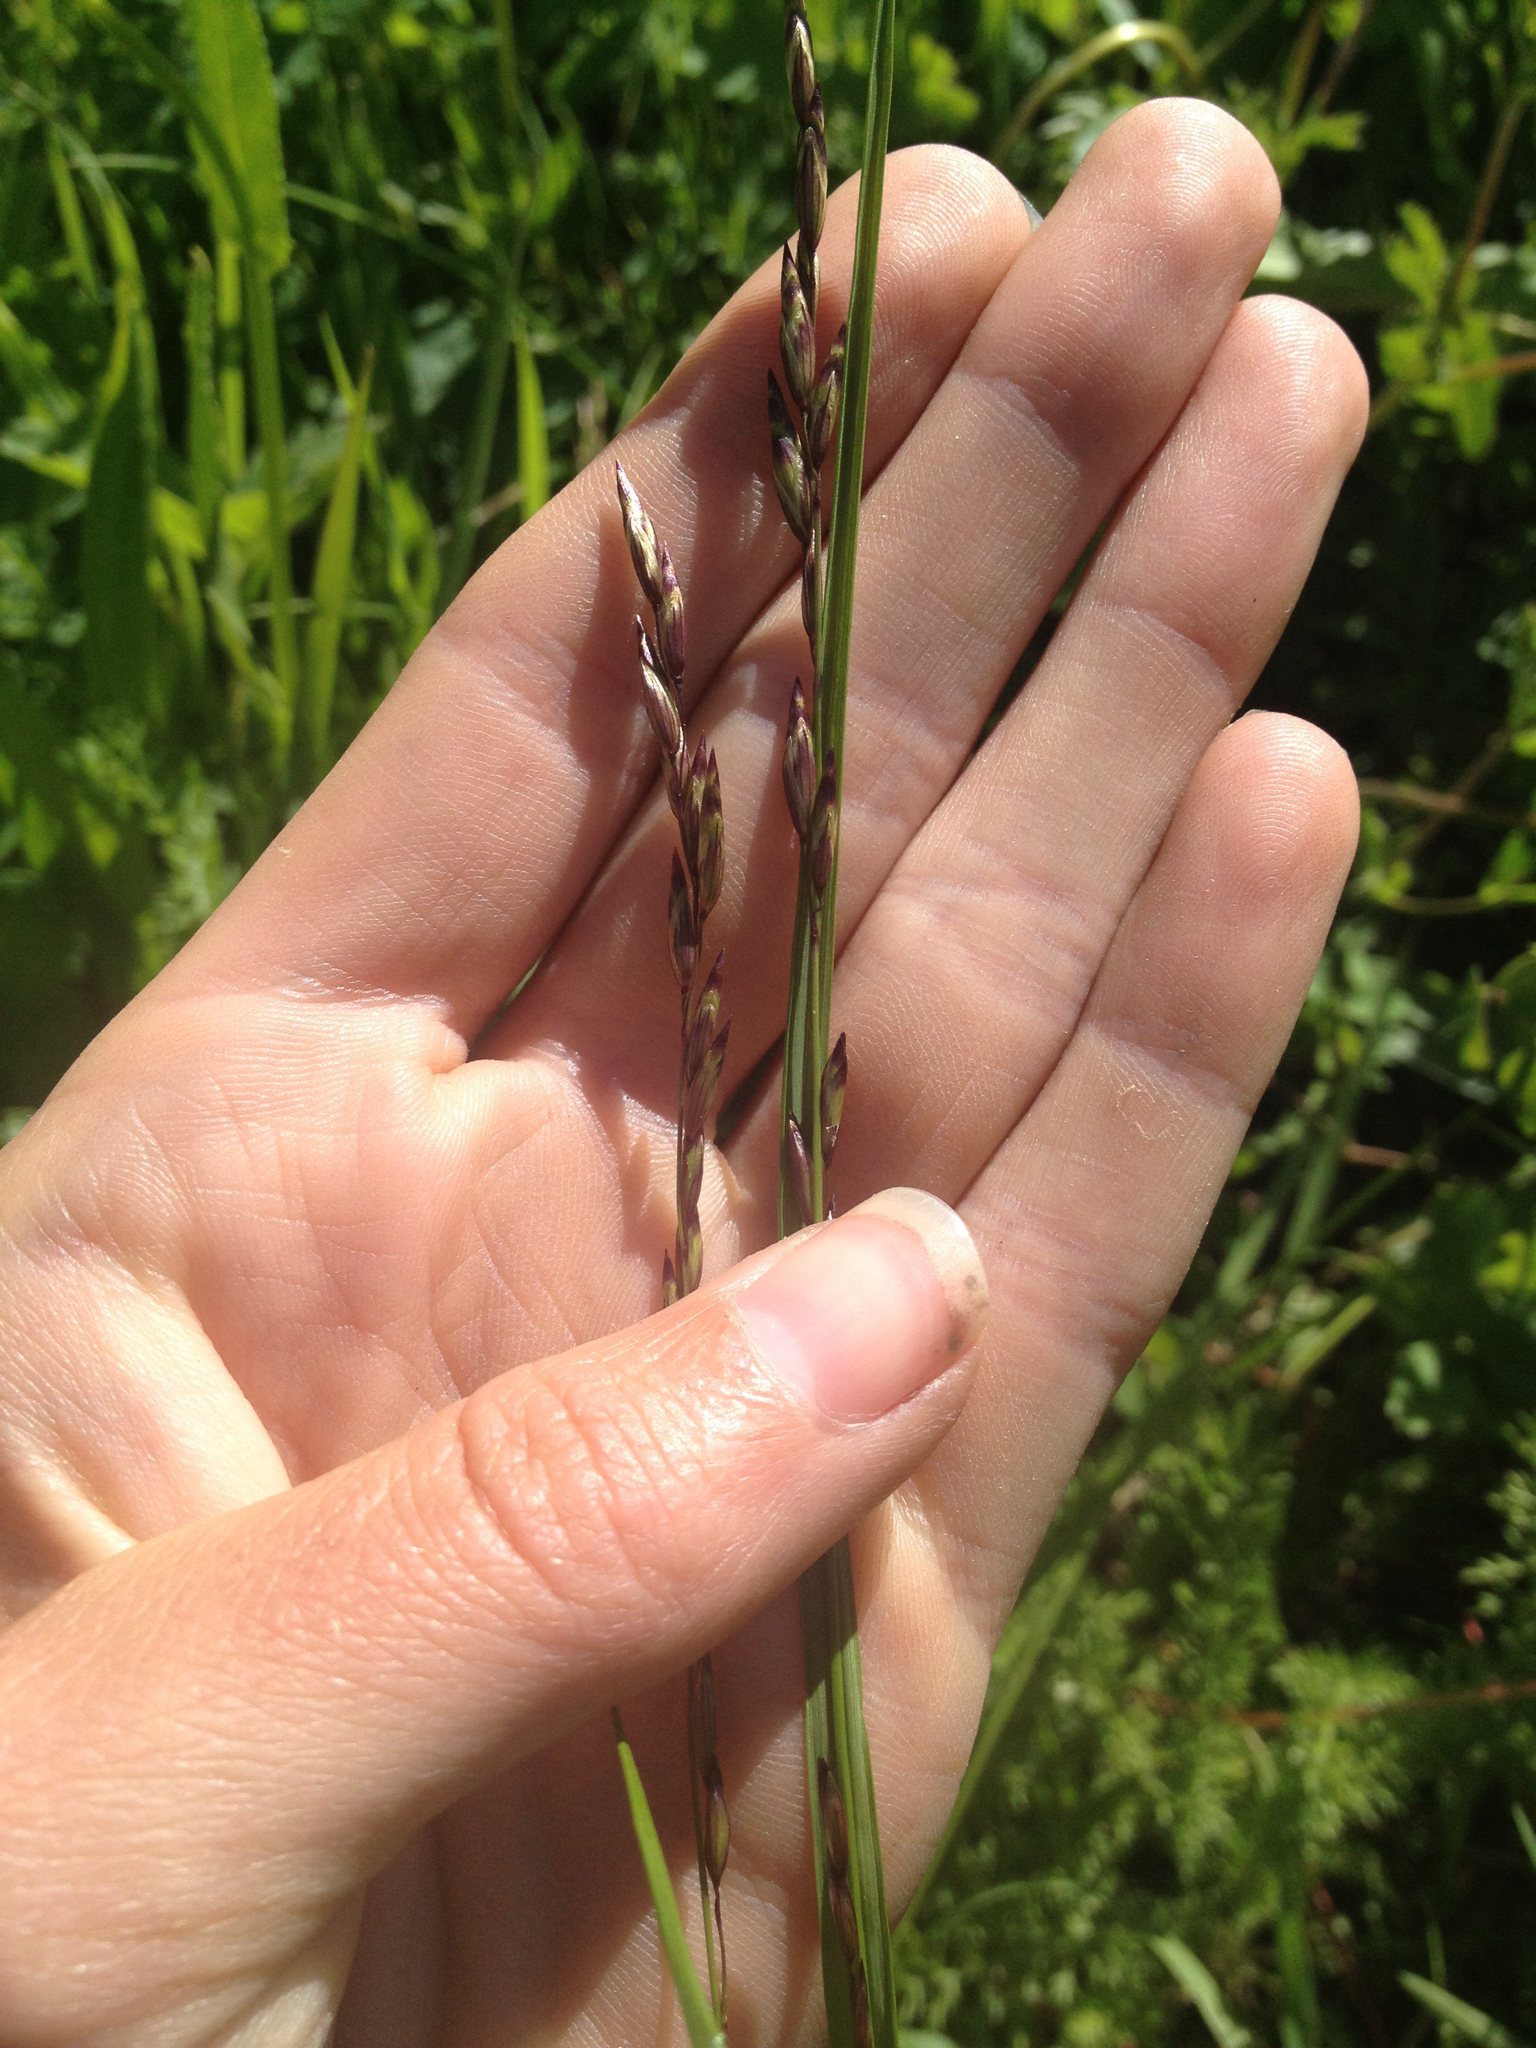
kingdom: Plantae
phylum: Tracheophyta
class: Liliopsida
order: Poales
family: Poaceae
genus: Melica
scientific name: Melica spectabilis
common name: Purple oniongrass
